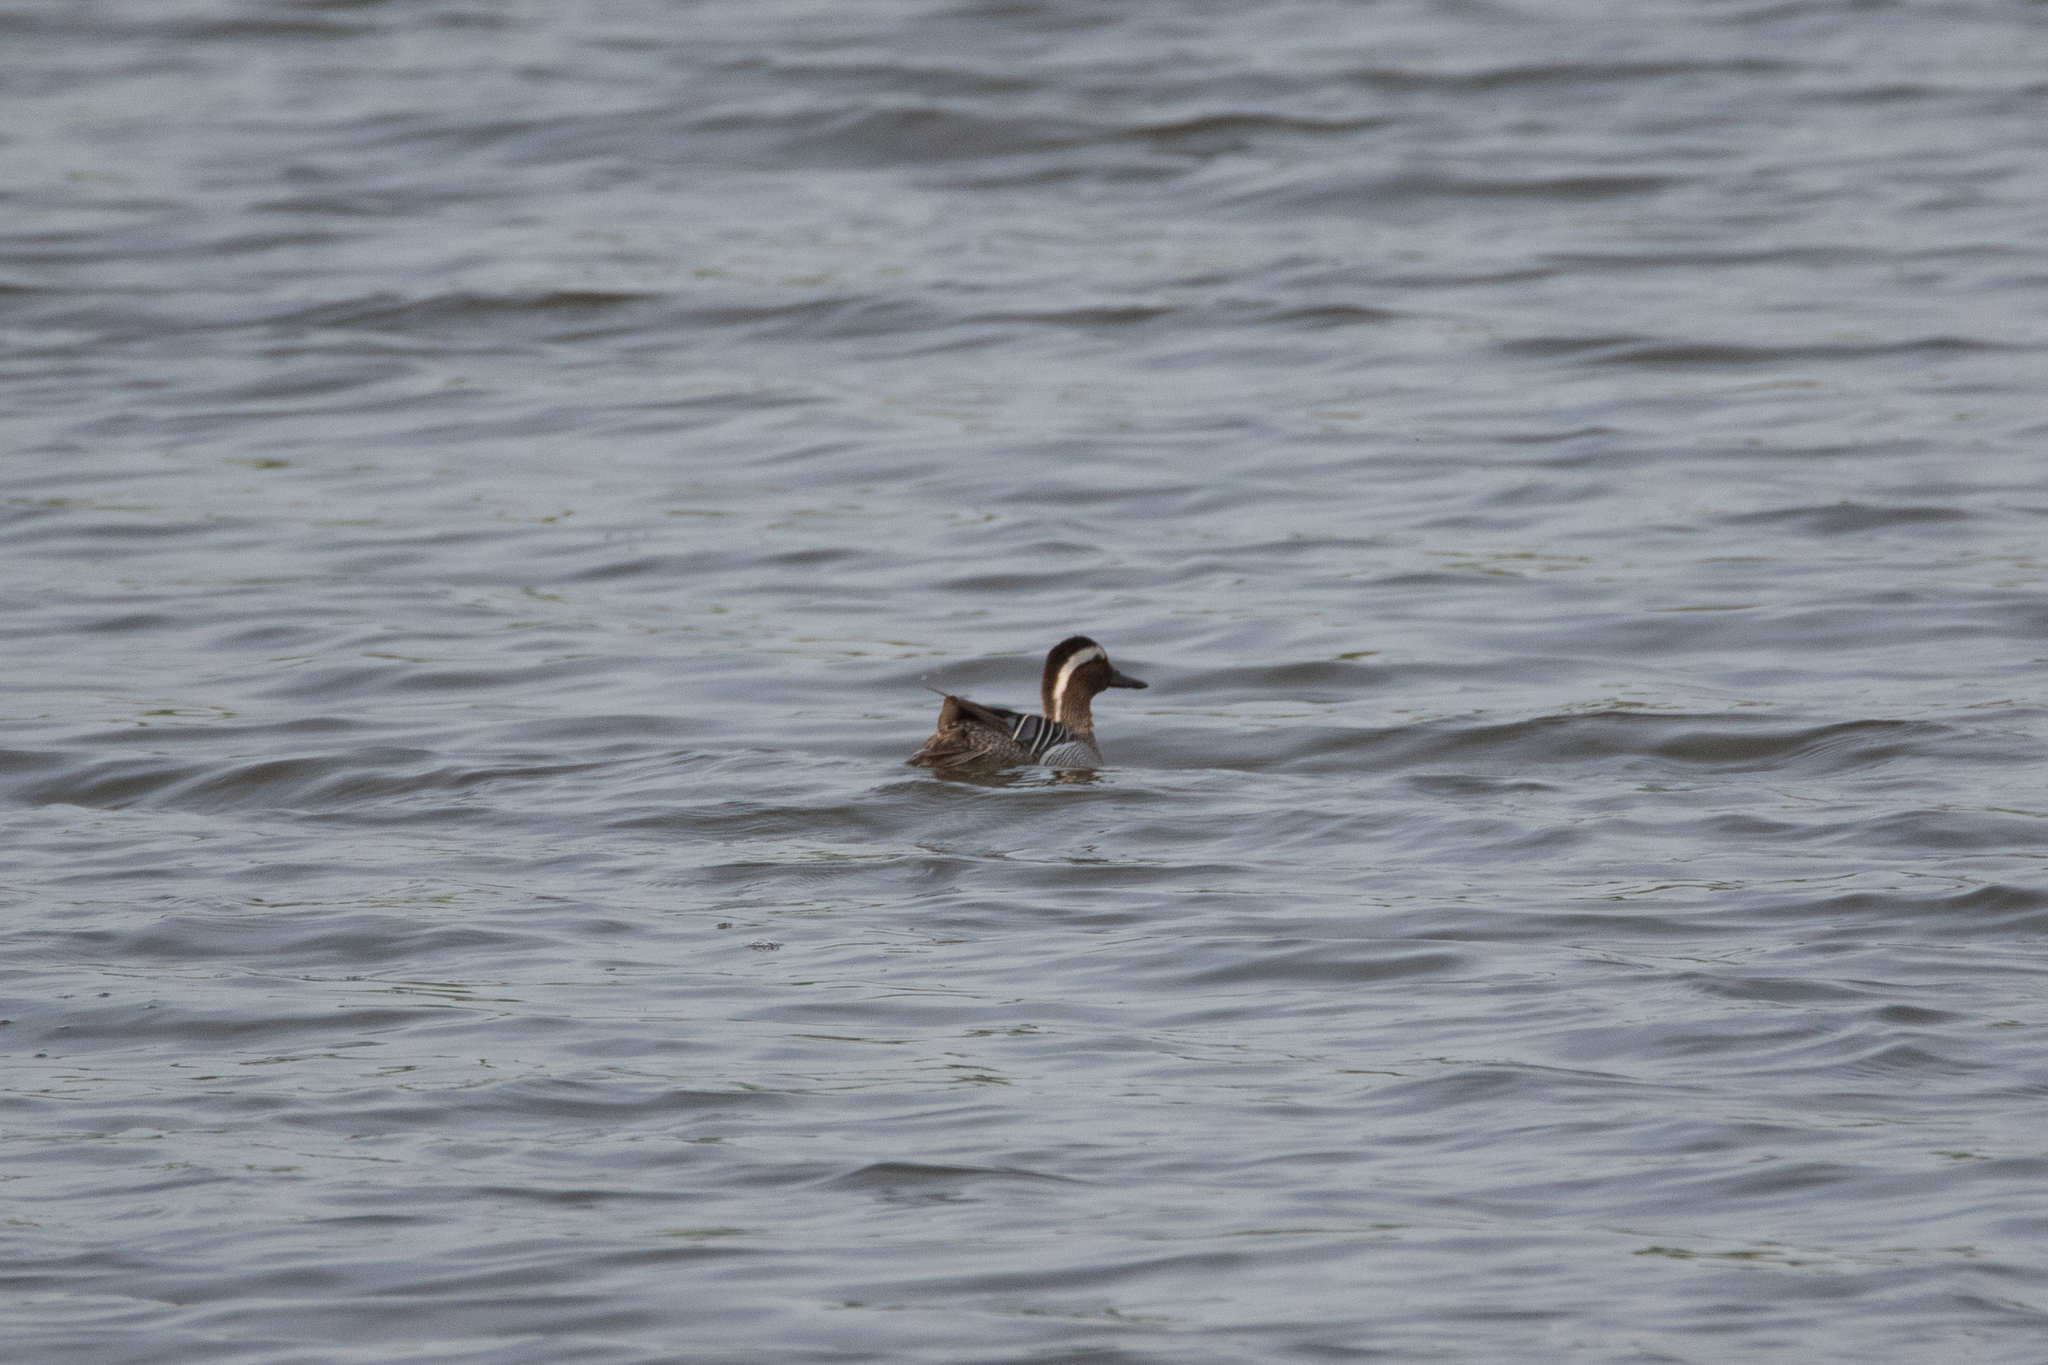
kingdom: Animalia
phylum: Chordata
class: Aves
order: Anseriformes
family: Anatidae
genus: Spatula
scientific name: Spatula querquedula
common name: Garganey
